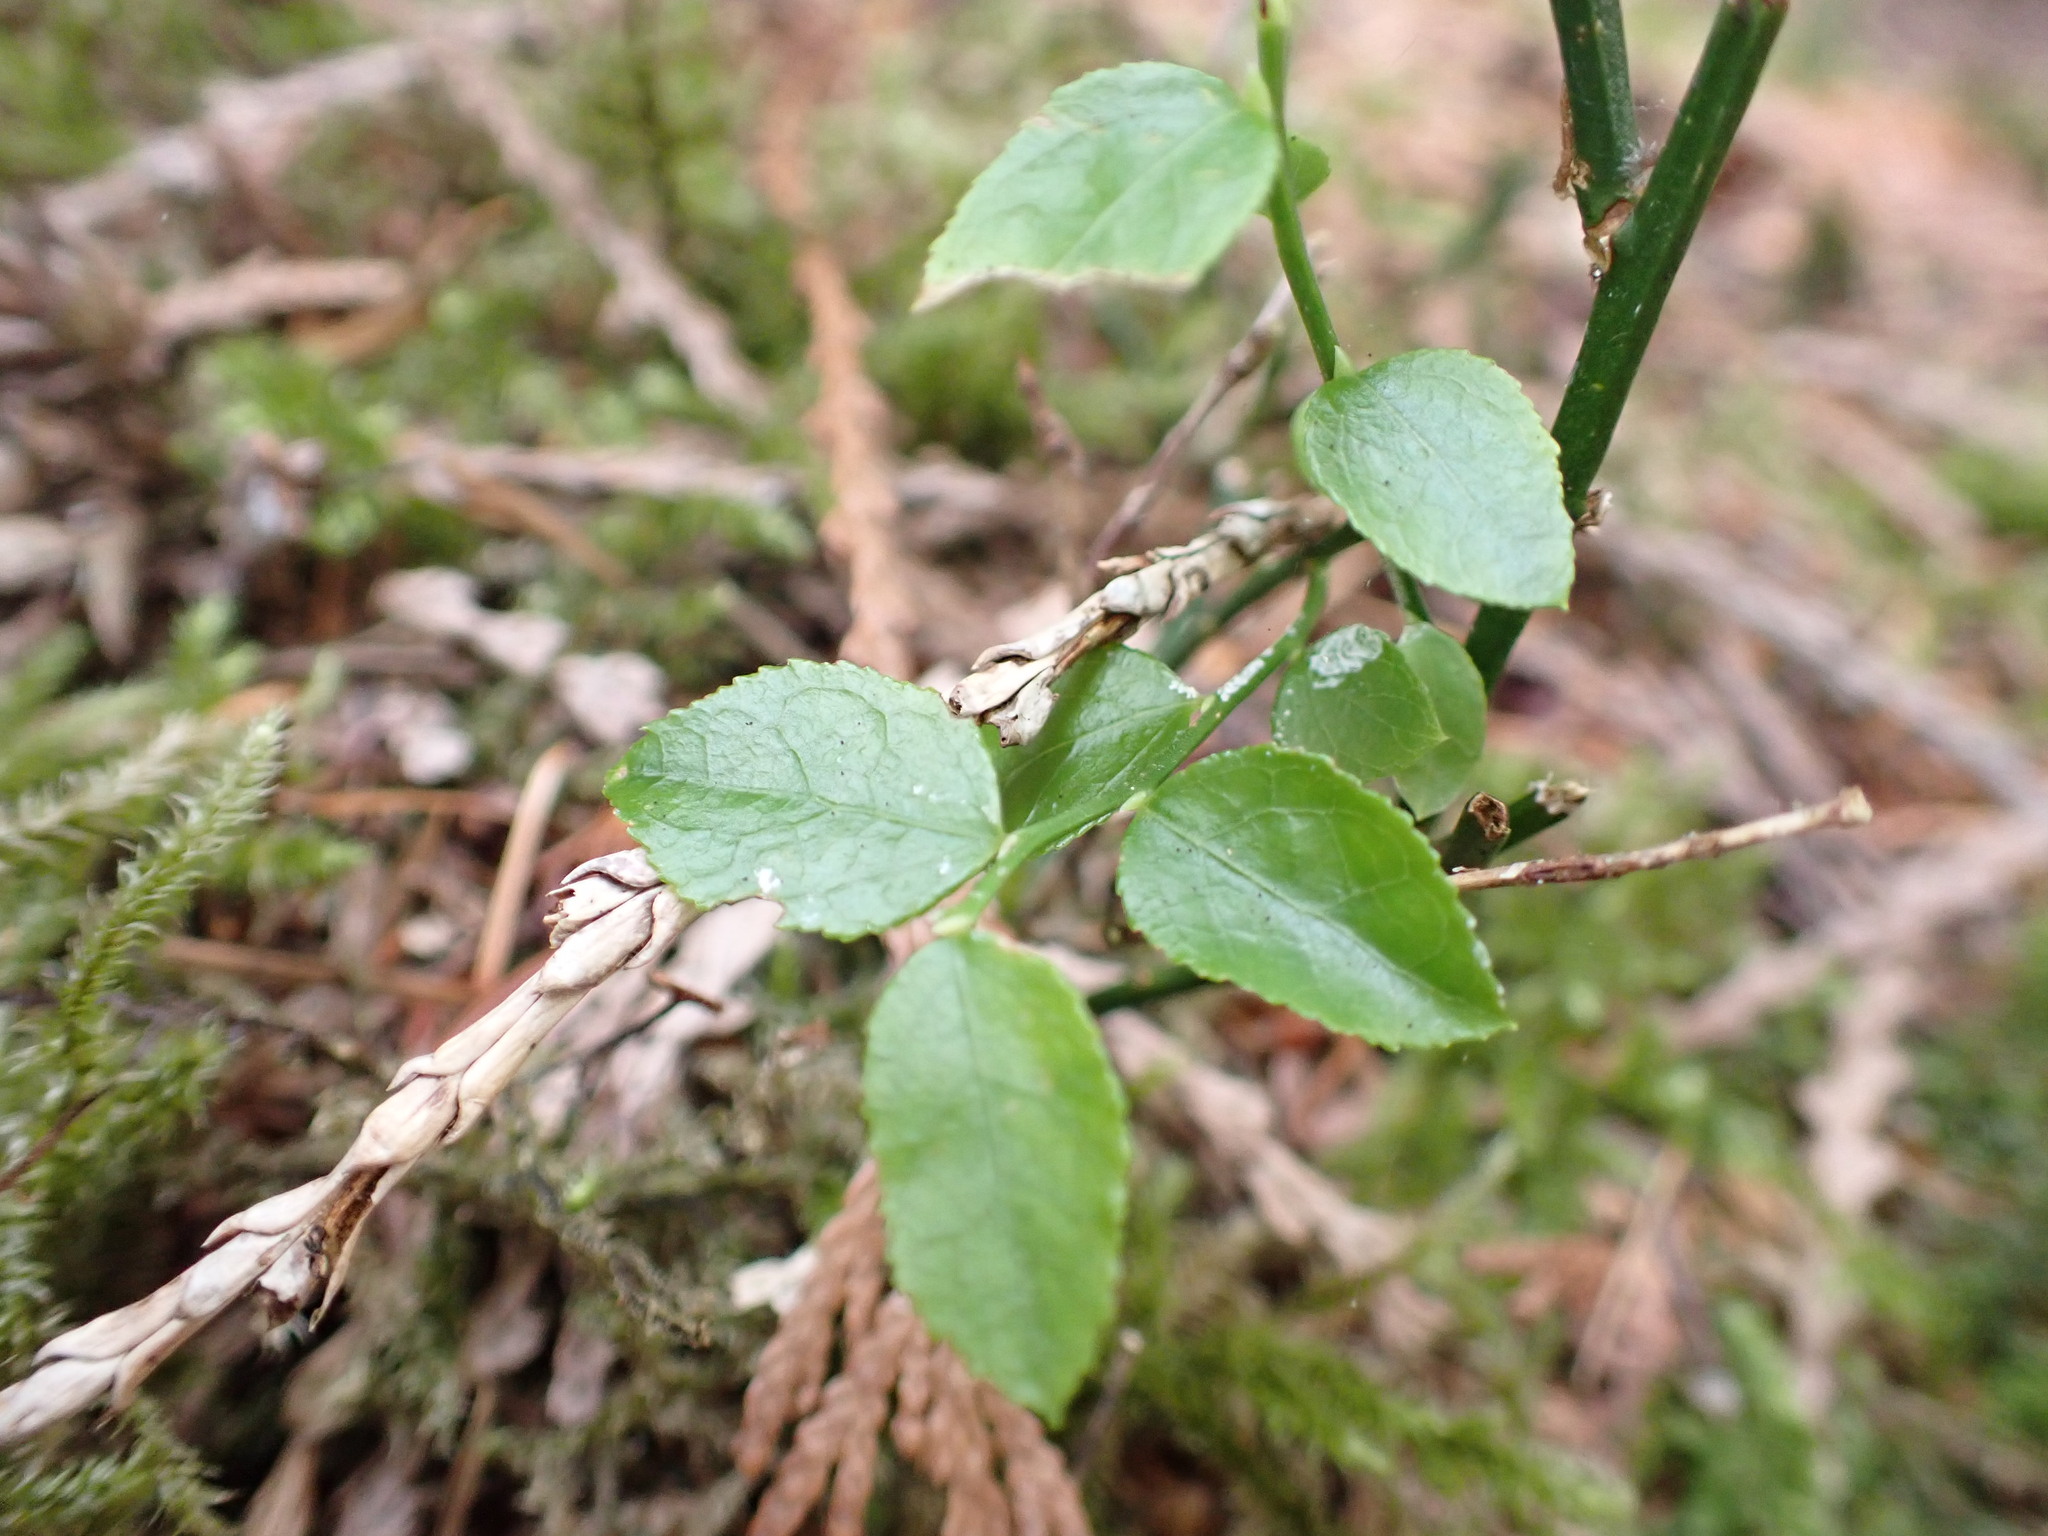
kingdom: Plantae
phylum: Tracheophyta
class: Magnoliopsida
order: Ericales
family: Ericaceae
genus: Vaccinium
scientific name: Vaccinium parvifolium
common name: Red-huckleberry
